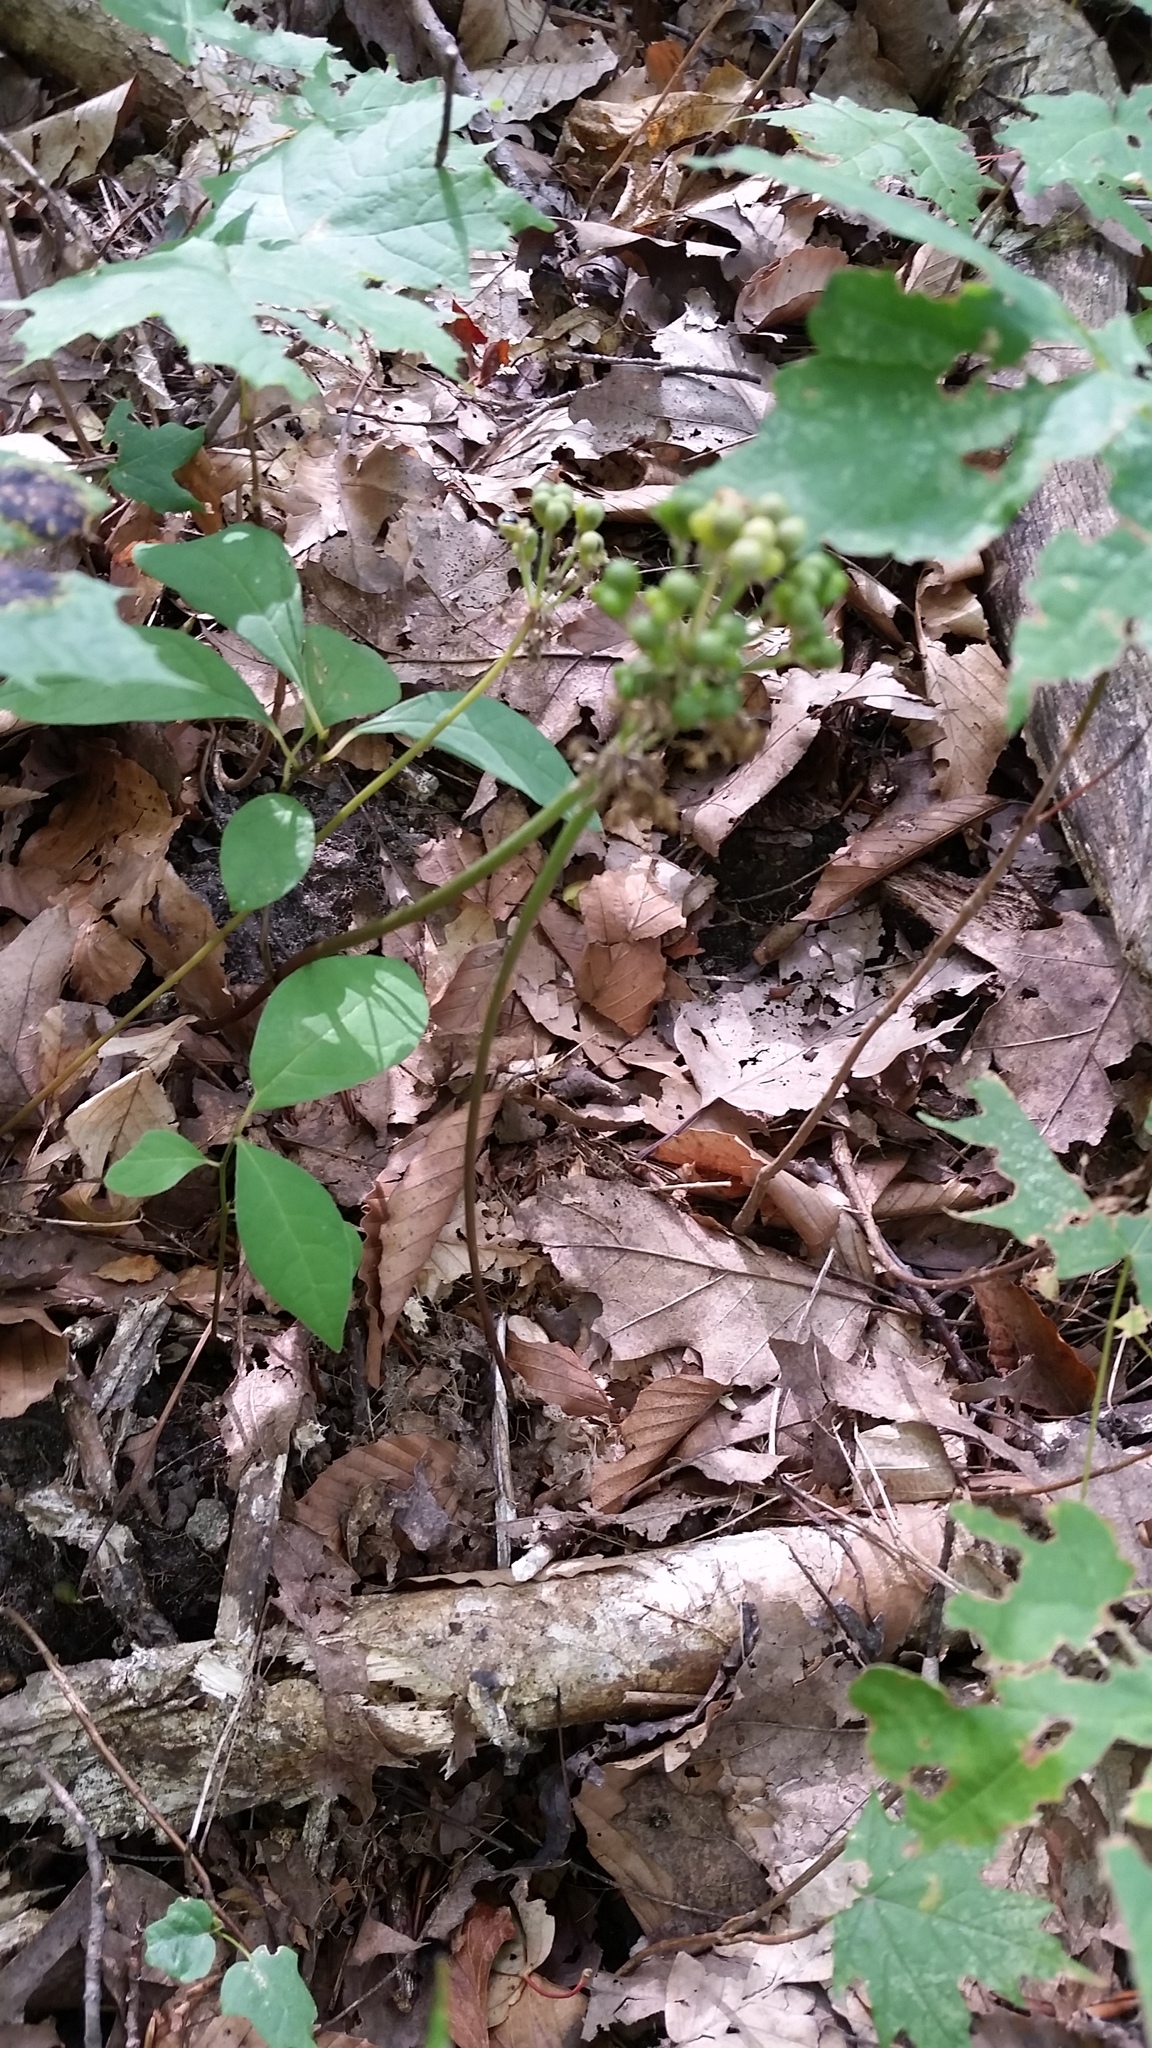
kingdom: Plantae
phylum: Tracheophyta
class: Liliopsida
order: Asparagales
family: Amaryllidaceae
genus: Allium
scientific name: Allium tricoccum
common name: Ramp
